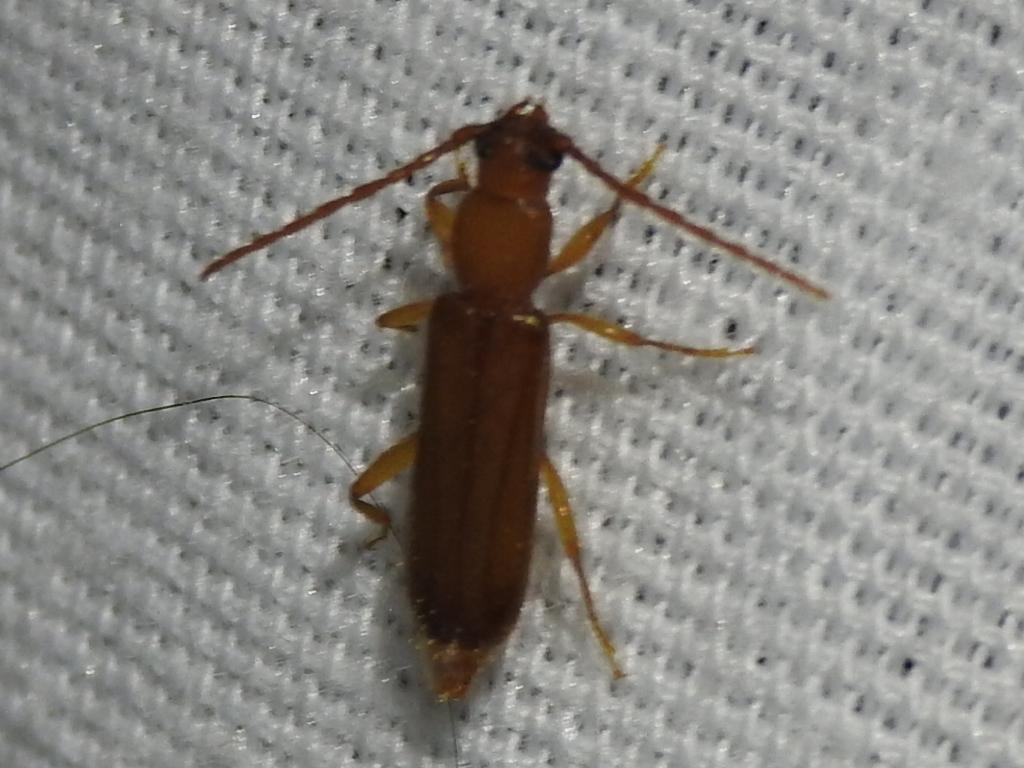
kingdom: Animalia
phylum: Arthropoda
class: Insecta
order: Coleoptera
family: Cerambycidae
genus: Smodicum
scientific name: Smodicum cucujiforme
